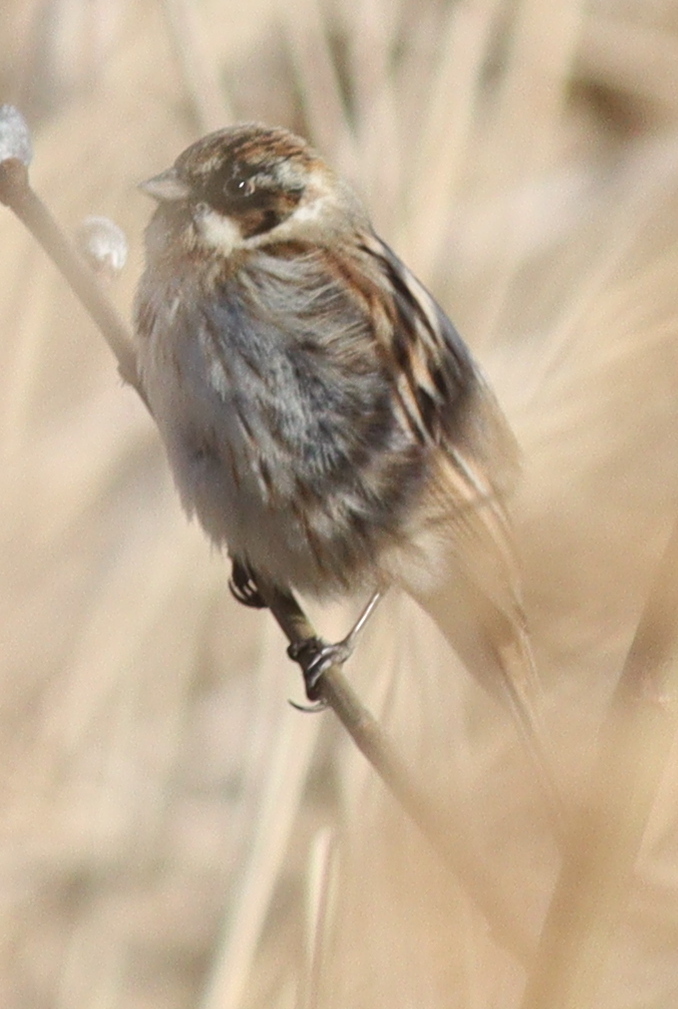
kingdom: Animalia
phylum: Chordata
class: Aves
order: Passeriformes
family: Emberizidae
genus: Emberiza
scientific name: Emberiza schoeniclus
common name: Reed bunting
